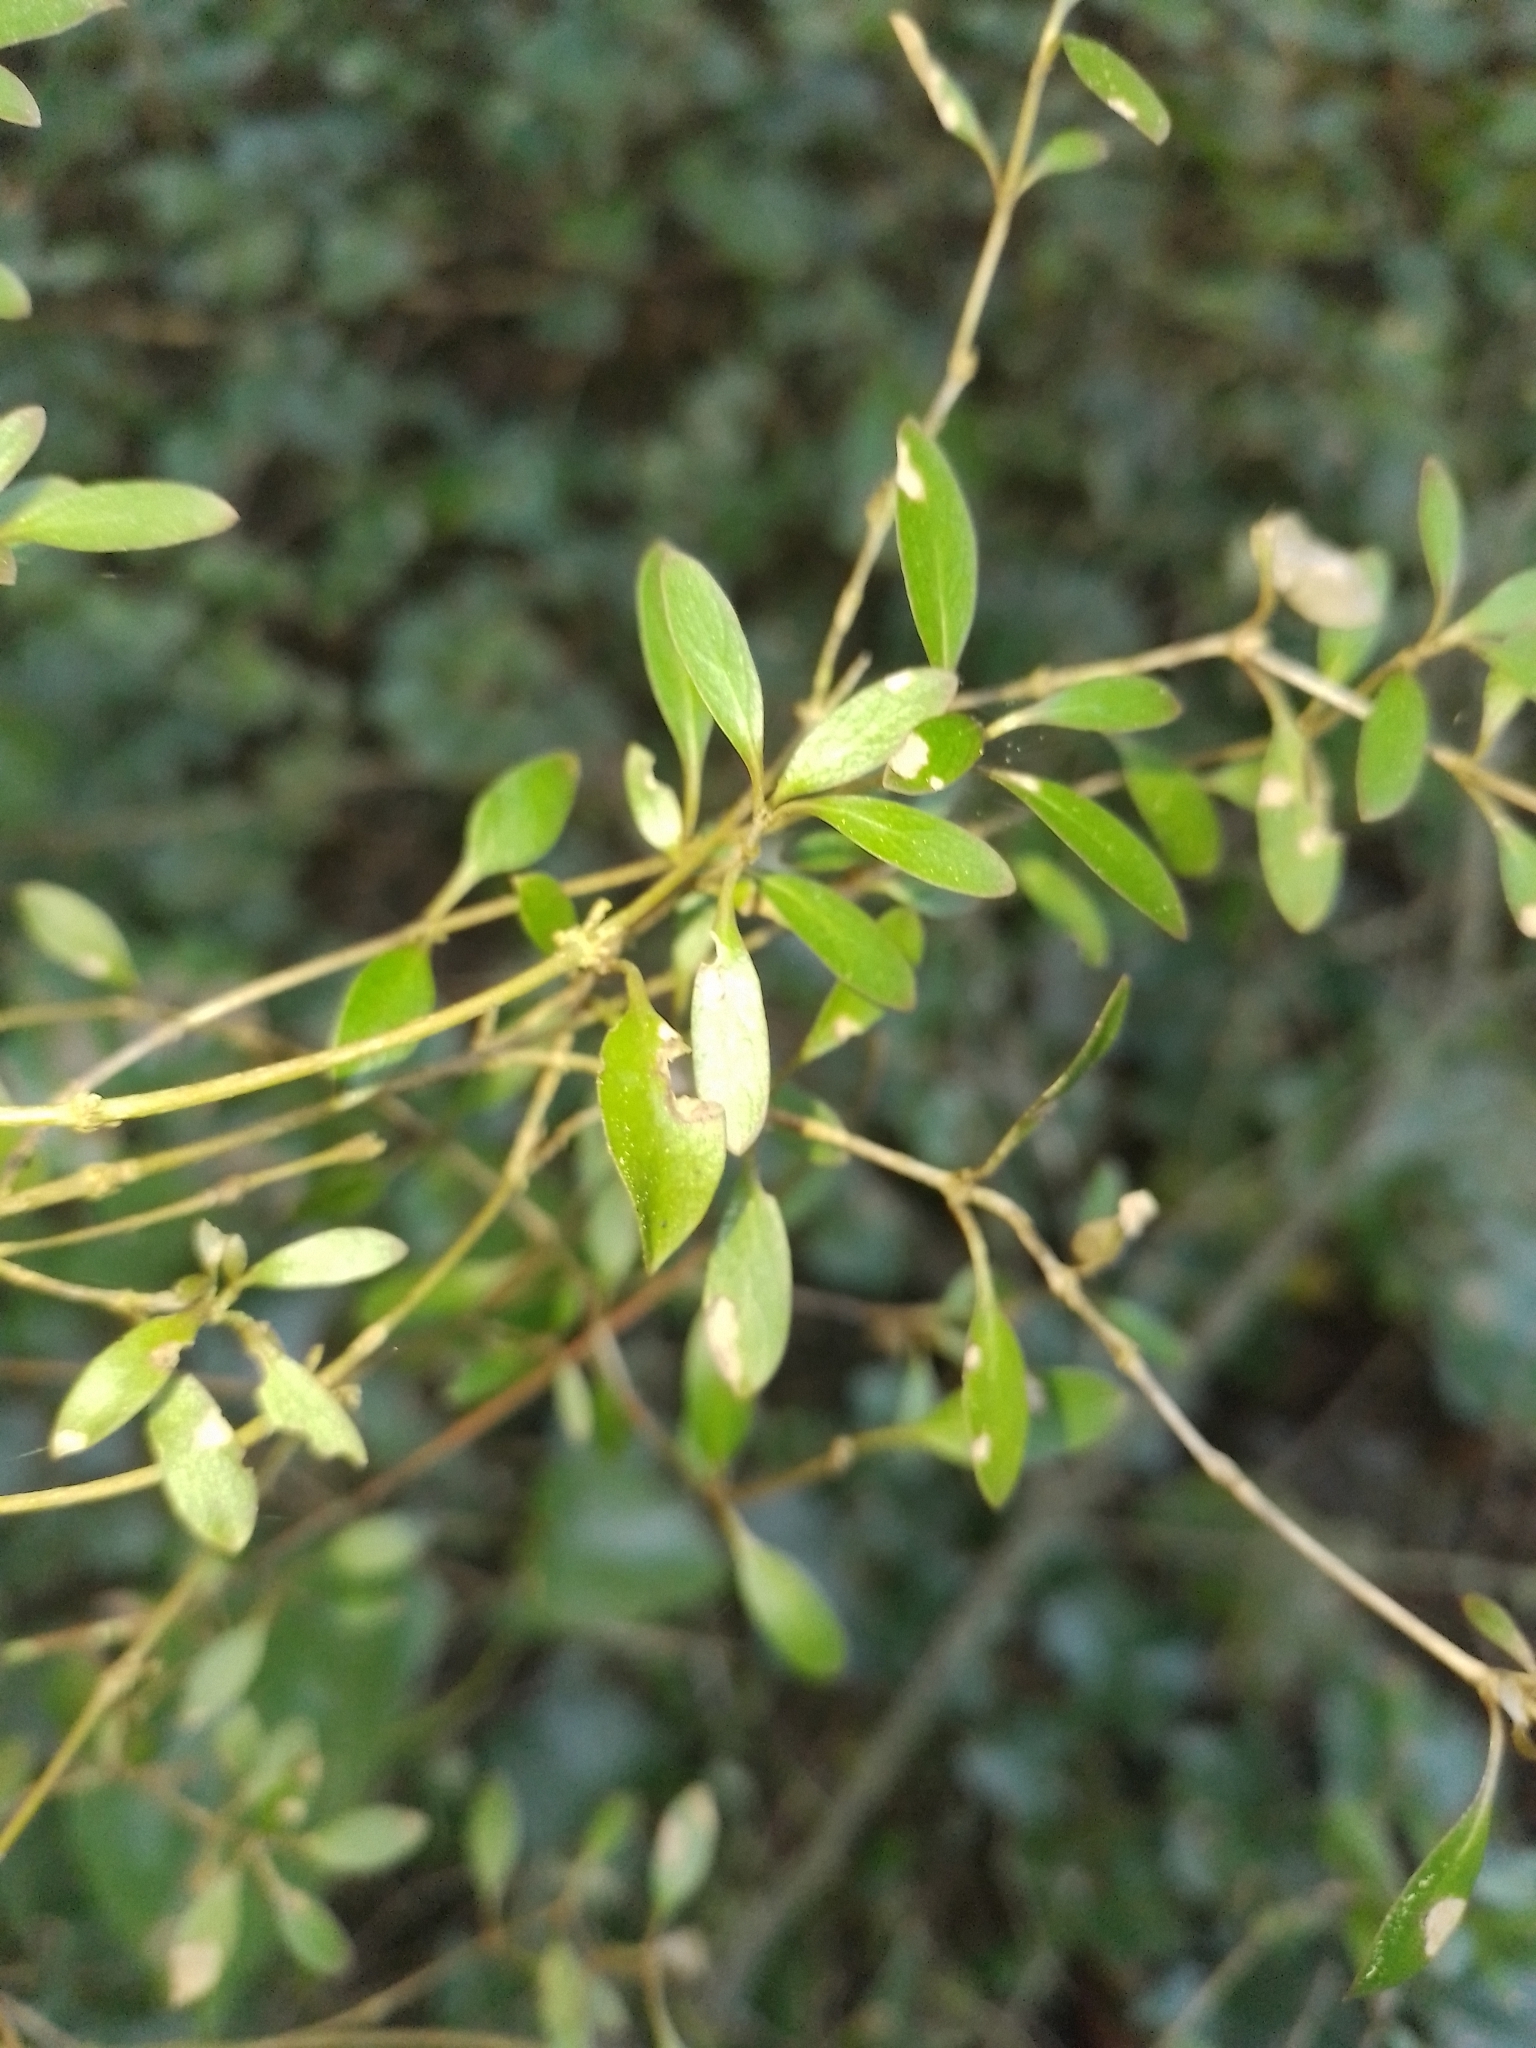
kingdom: Plantae
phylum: Tracheophyta
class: Magnoliopsida
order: Gentianales
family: Rubiaceae
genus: Coprosma
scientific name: Coprosma cunninghamii
